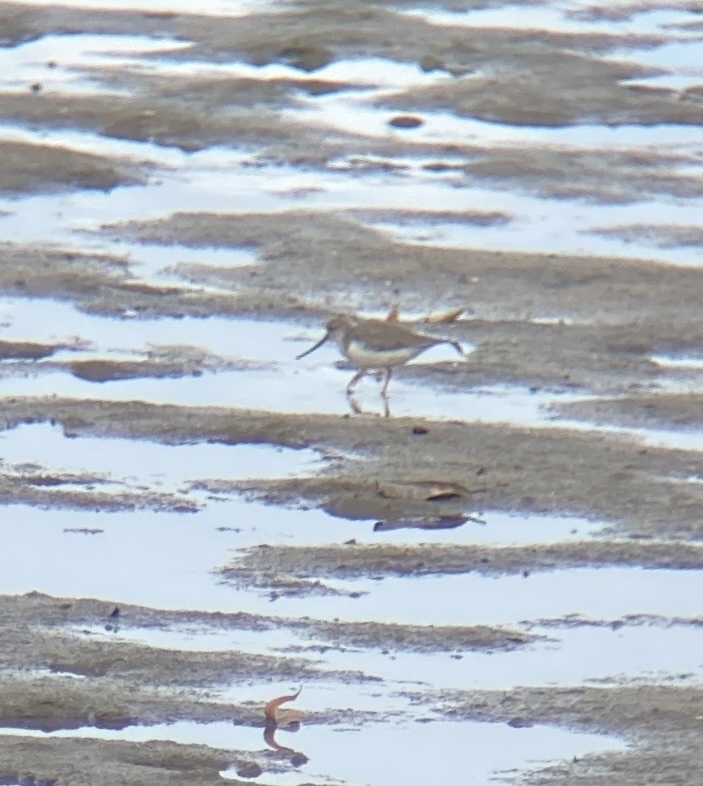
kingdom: Animalia
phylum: Chordata
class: Aves
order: Charadriiformes
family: Scolopacidae
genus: Xenus
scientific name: Xenus cinereus
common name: Terek sandpiper
